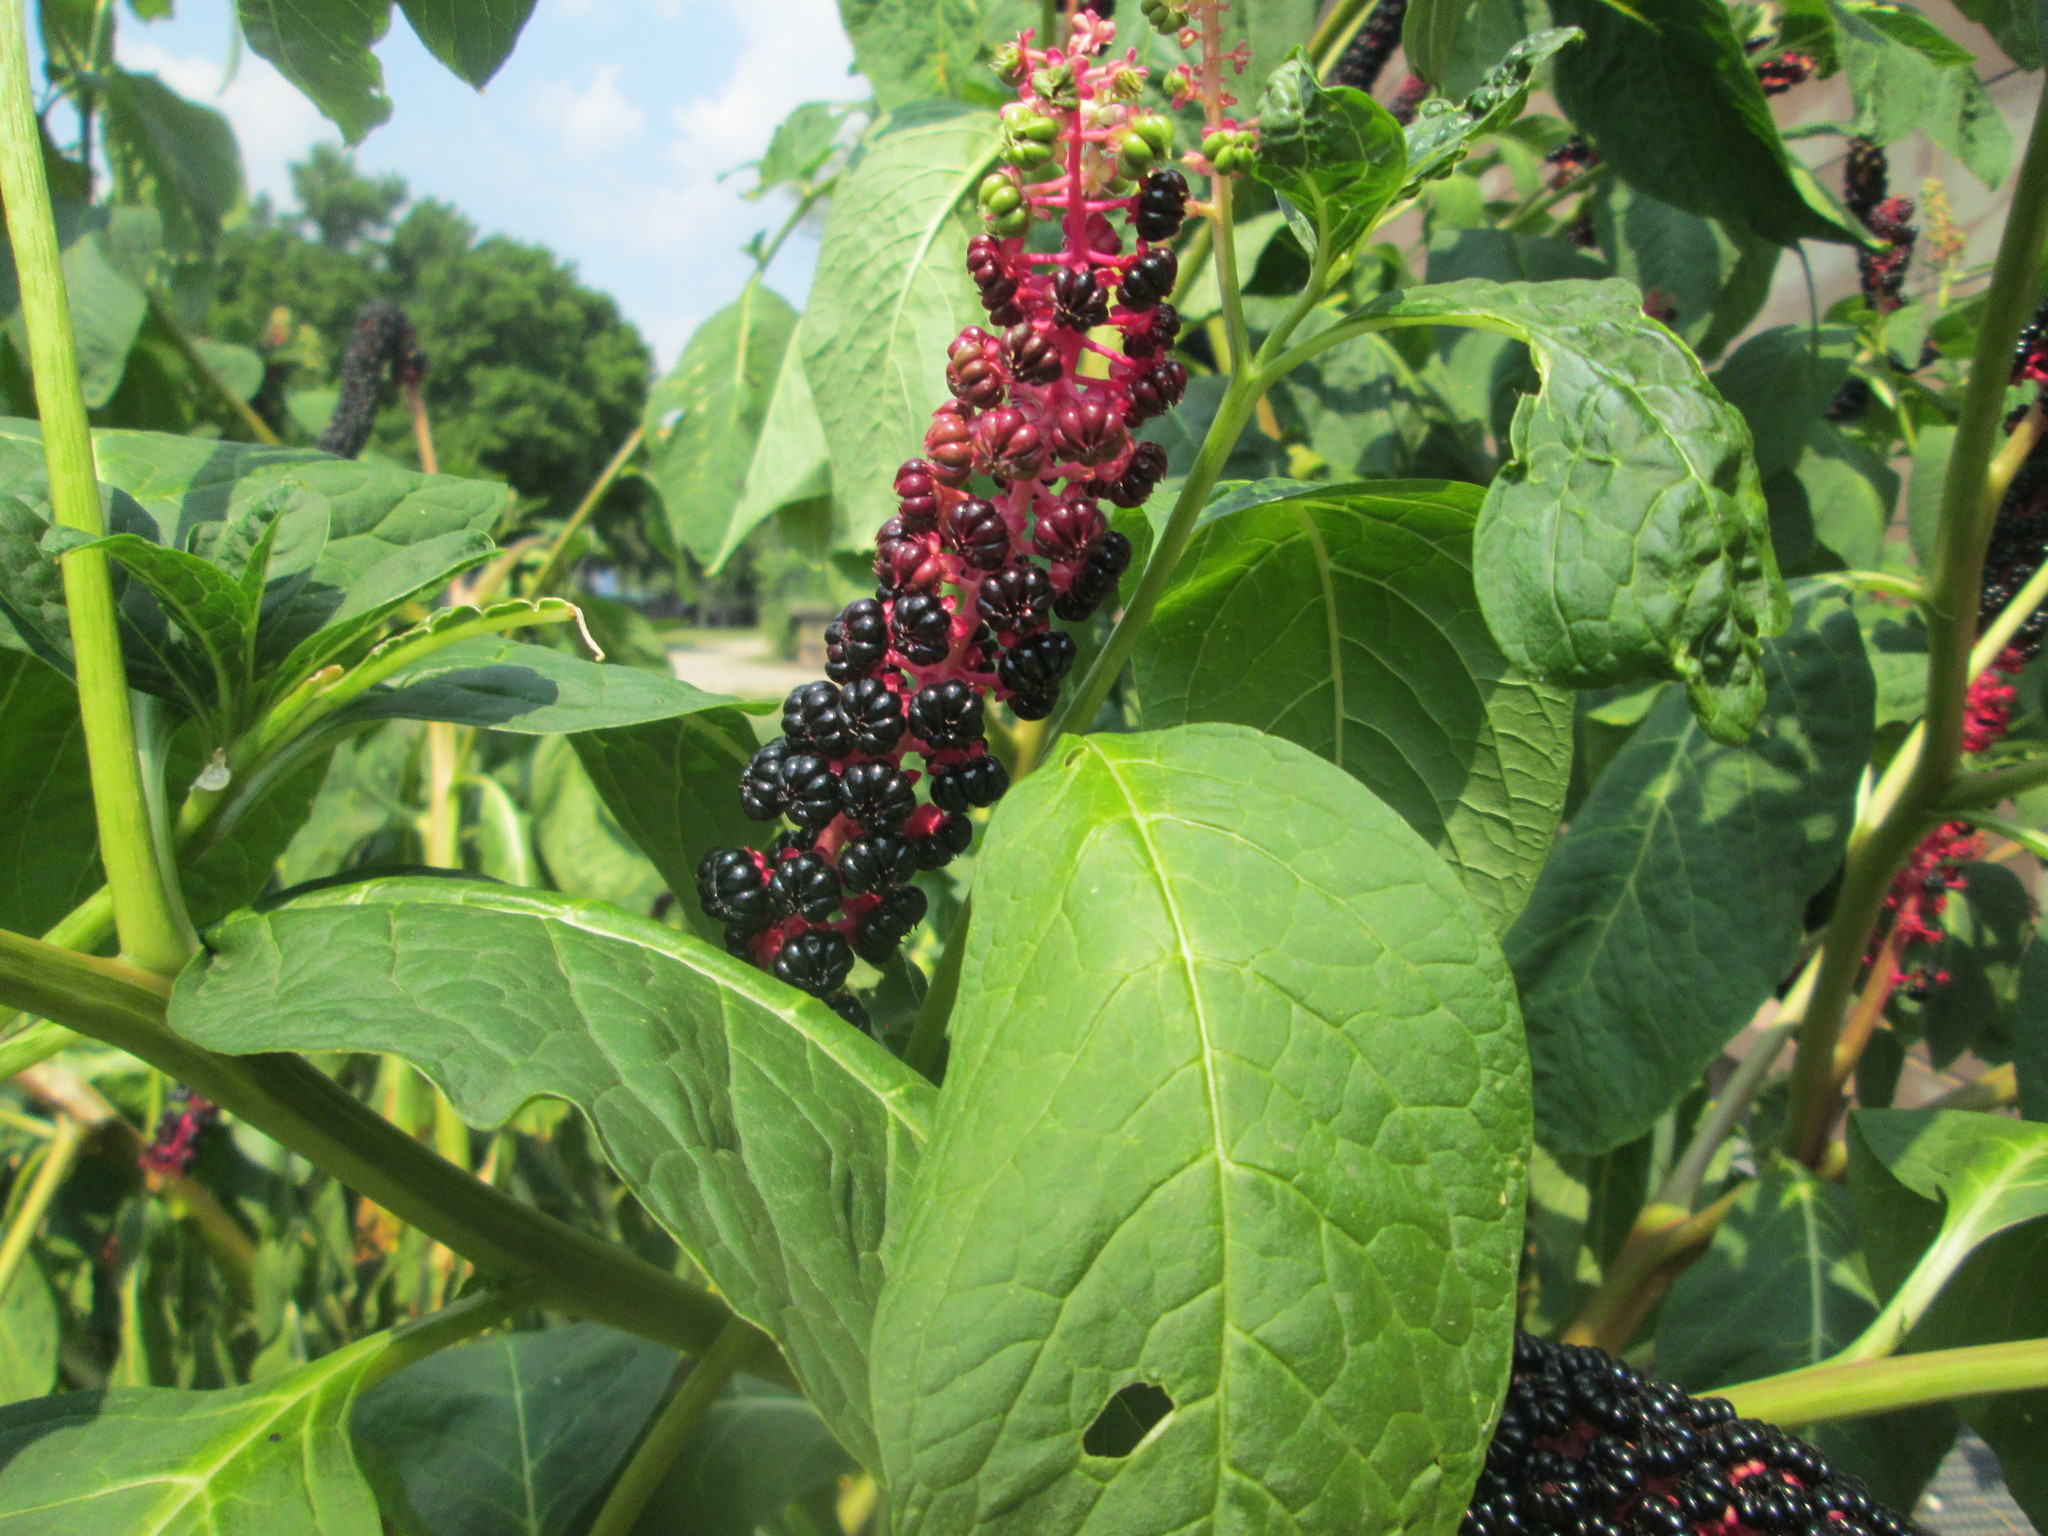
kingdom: Plantae
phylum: Tracheophyta
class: Magnoliopsida
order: Caryophyllales
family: Phytolaccaceae
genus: Phytolacca
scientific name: Phytolacca acinosa
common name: Indian pokeweed
